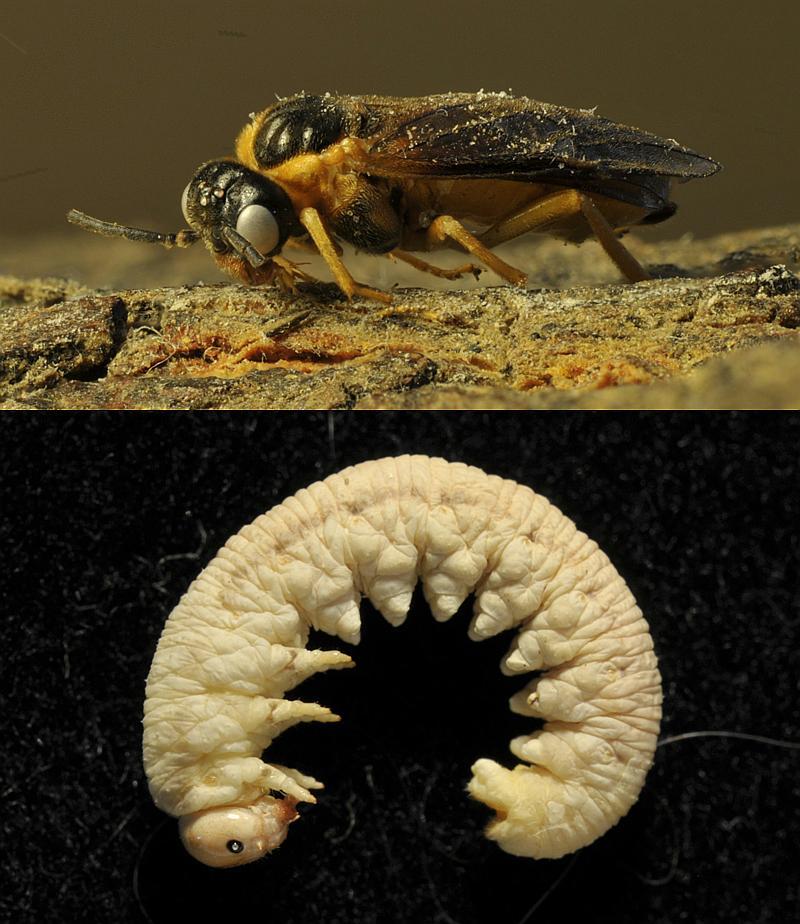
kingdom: Animalia
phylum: Arthropoda
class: Insecta
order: Hymenoptera
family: Tenthredinidae
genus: Monostegia
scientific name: Monostegia abdominalis
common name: Tenthredid wasp
